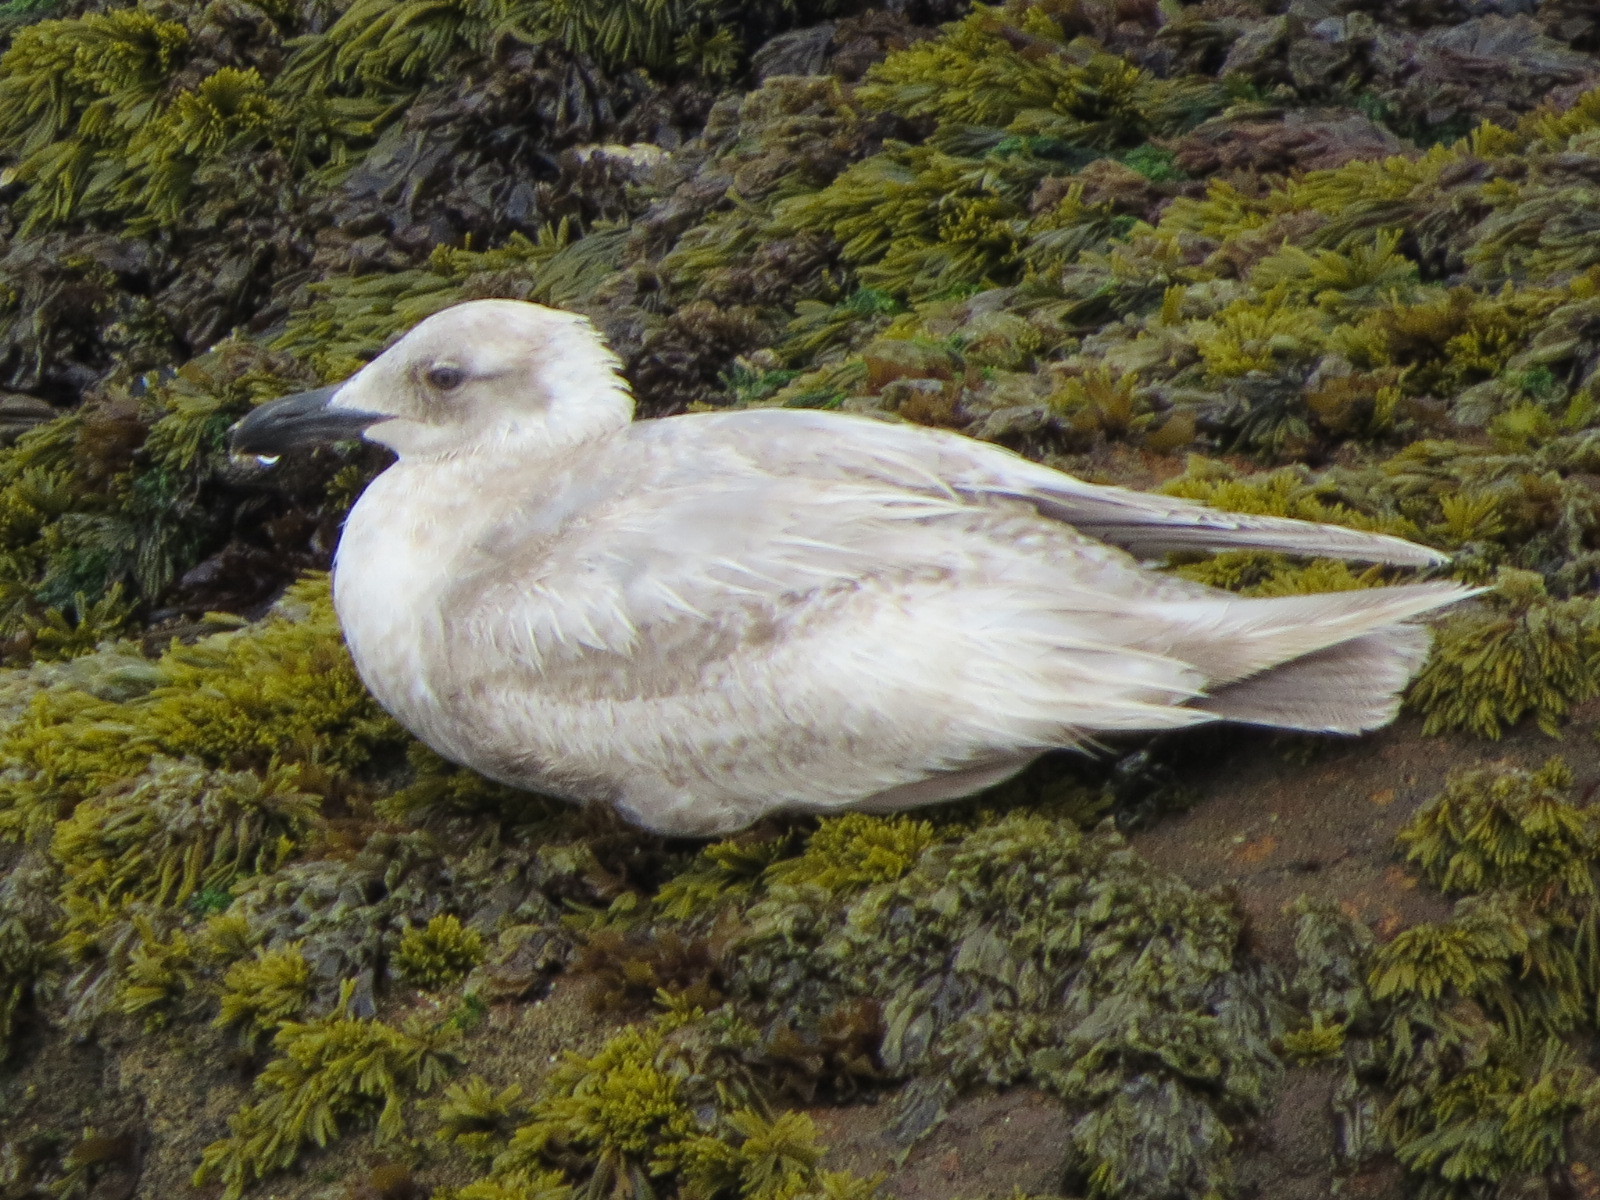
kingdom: Animalia
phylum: Chordata
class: Aves
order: Charadriiformes
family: Laridae
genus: Larus
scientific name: Larus glaucescens
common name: Glaucous-winged gull
